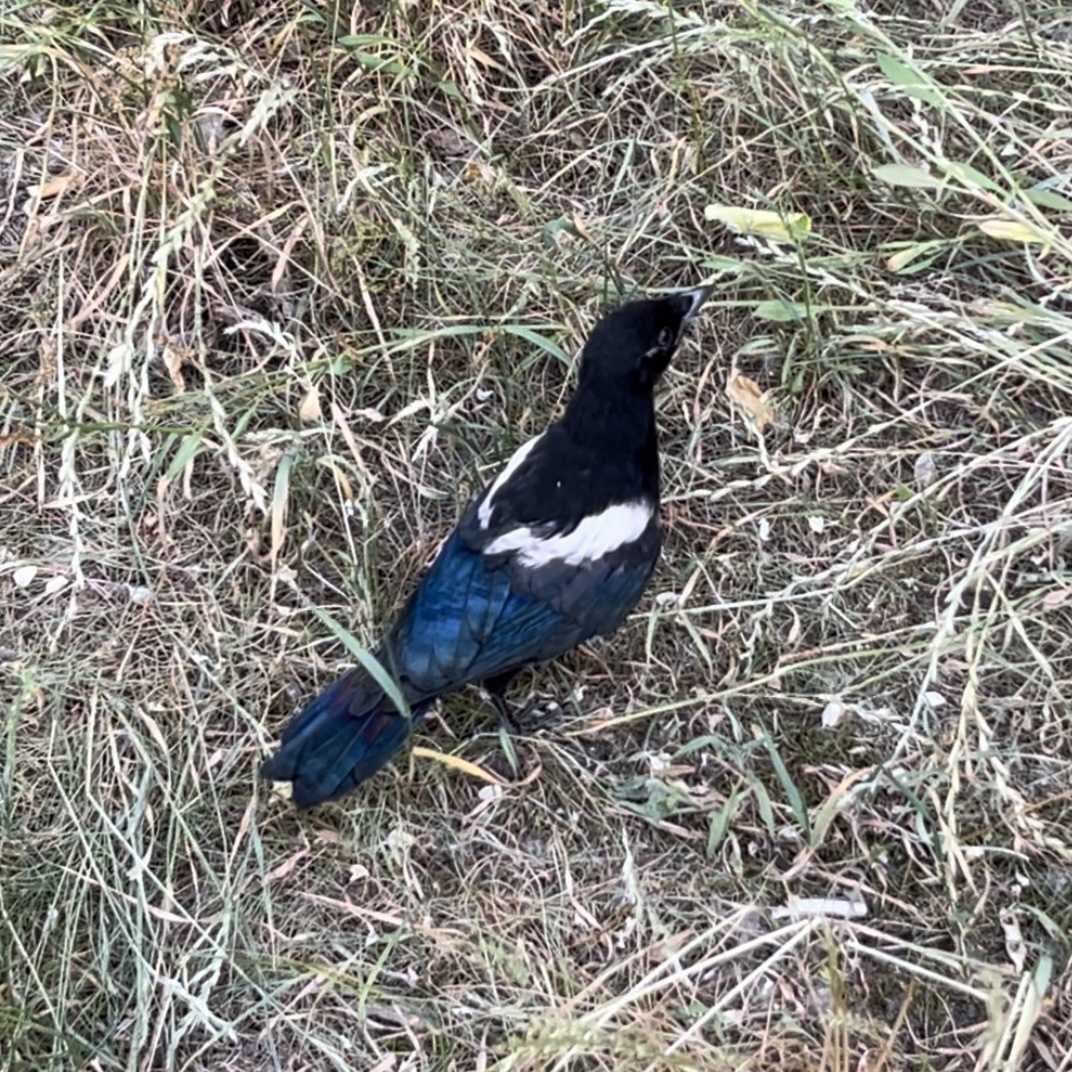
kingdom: Animalia
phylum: Chordata
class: Aves
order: Passeriformes
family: Corvidae
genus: Pica
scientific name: Pica pica
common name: Eurasian magpie
